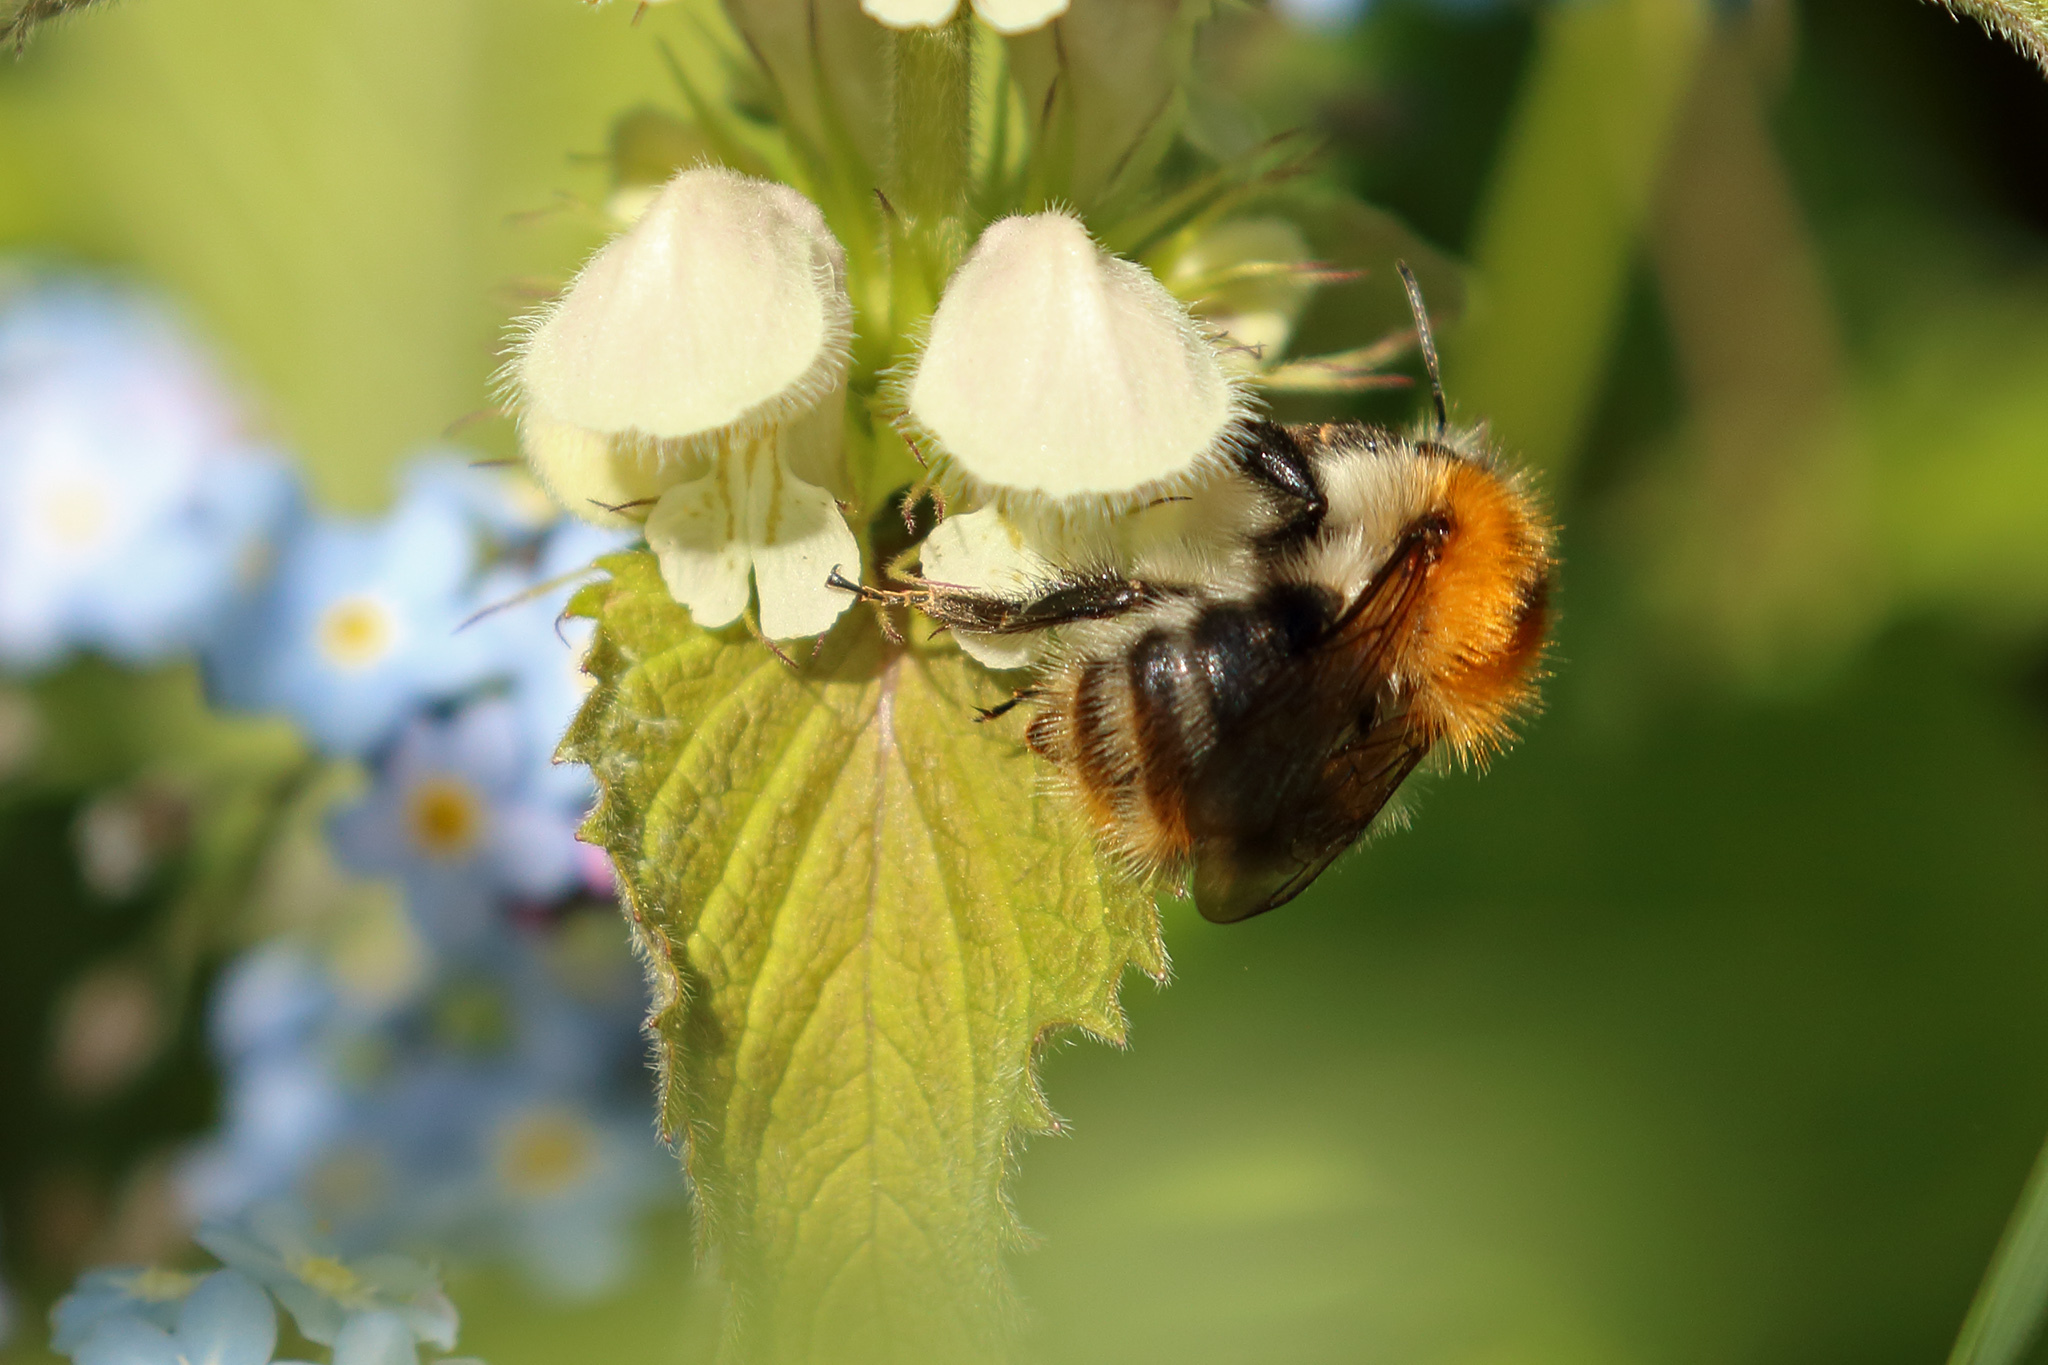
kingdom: Animalia
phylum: Arthropoda
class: Insecta
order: Hymenoptera
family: Apidae
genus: Bombus
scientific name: Bombus pascuorum
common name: Common carder bee
